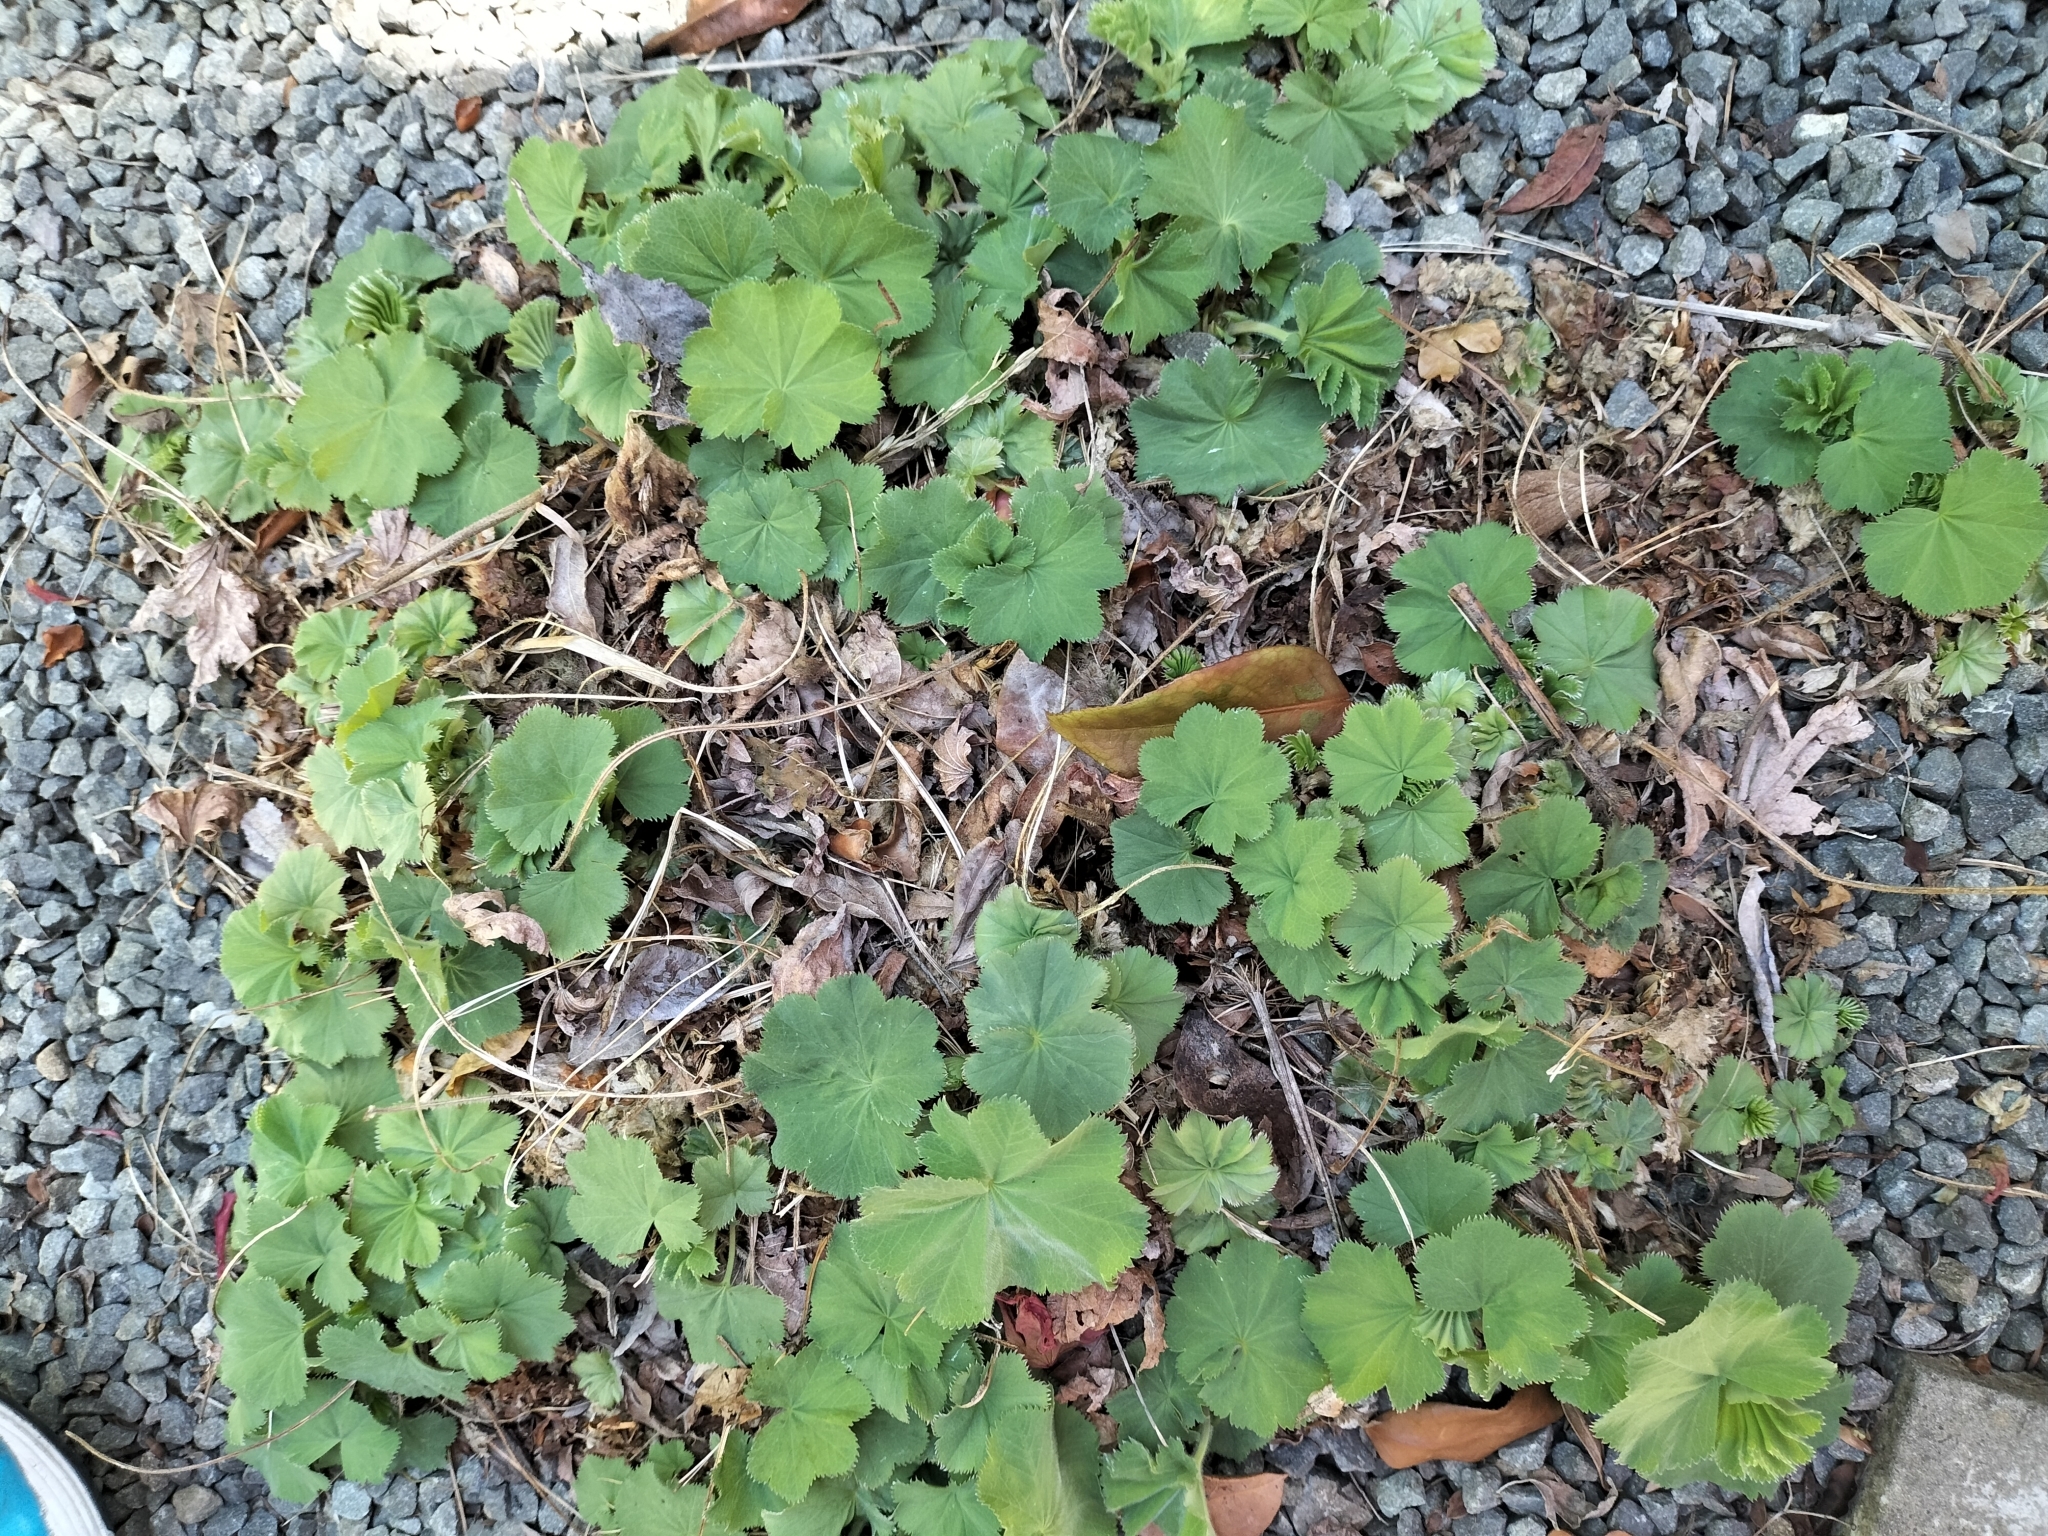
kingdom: Plantae
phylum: Tracheophyta
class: Magnoliopsida
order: Rosales
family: Rosaceae
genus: Alchemilla
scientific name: Alchemilla mollis
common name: Lady's-mantle
